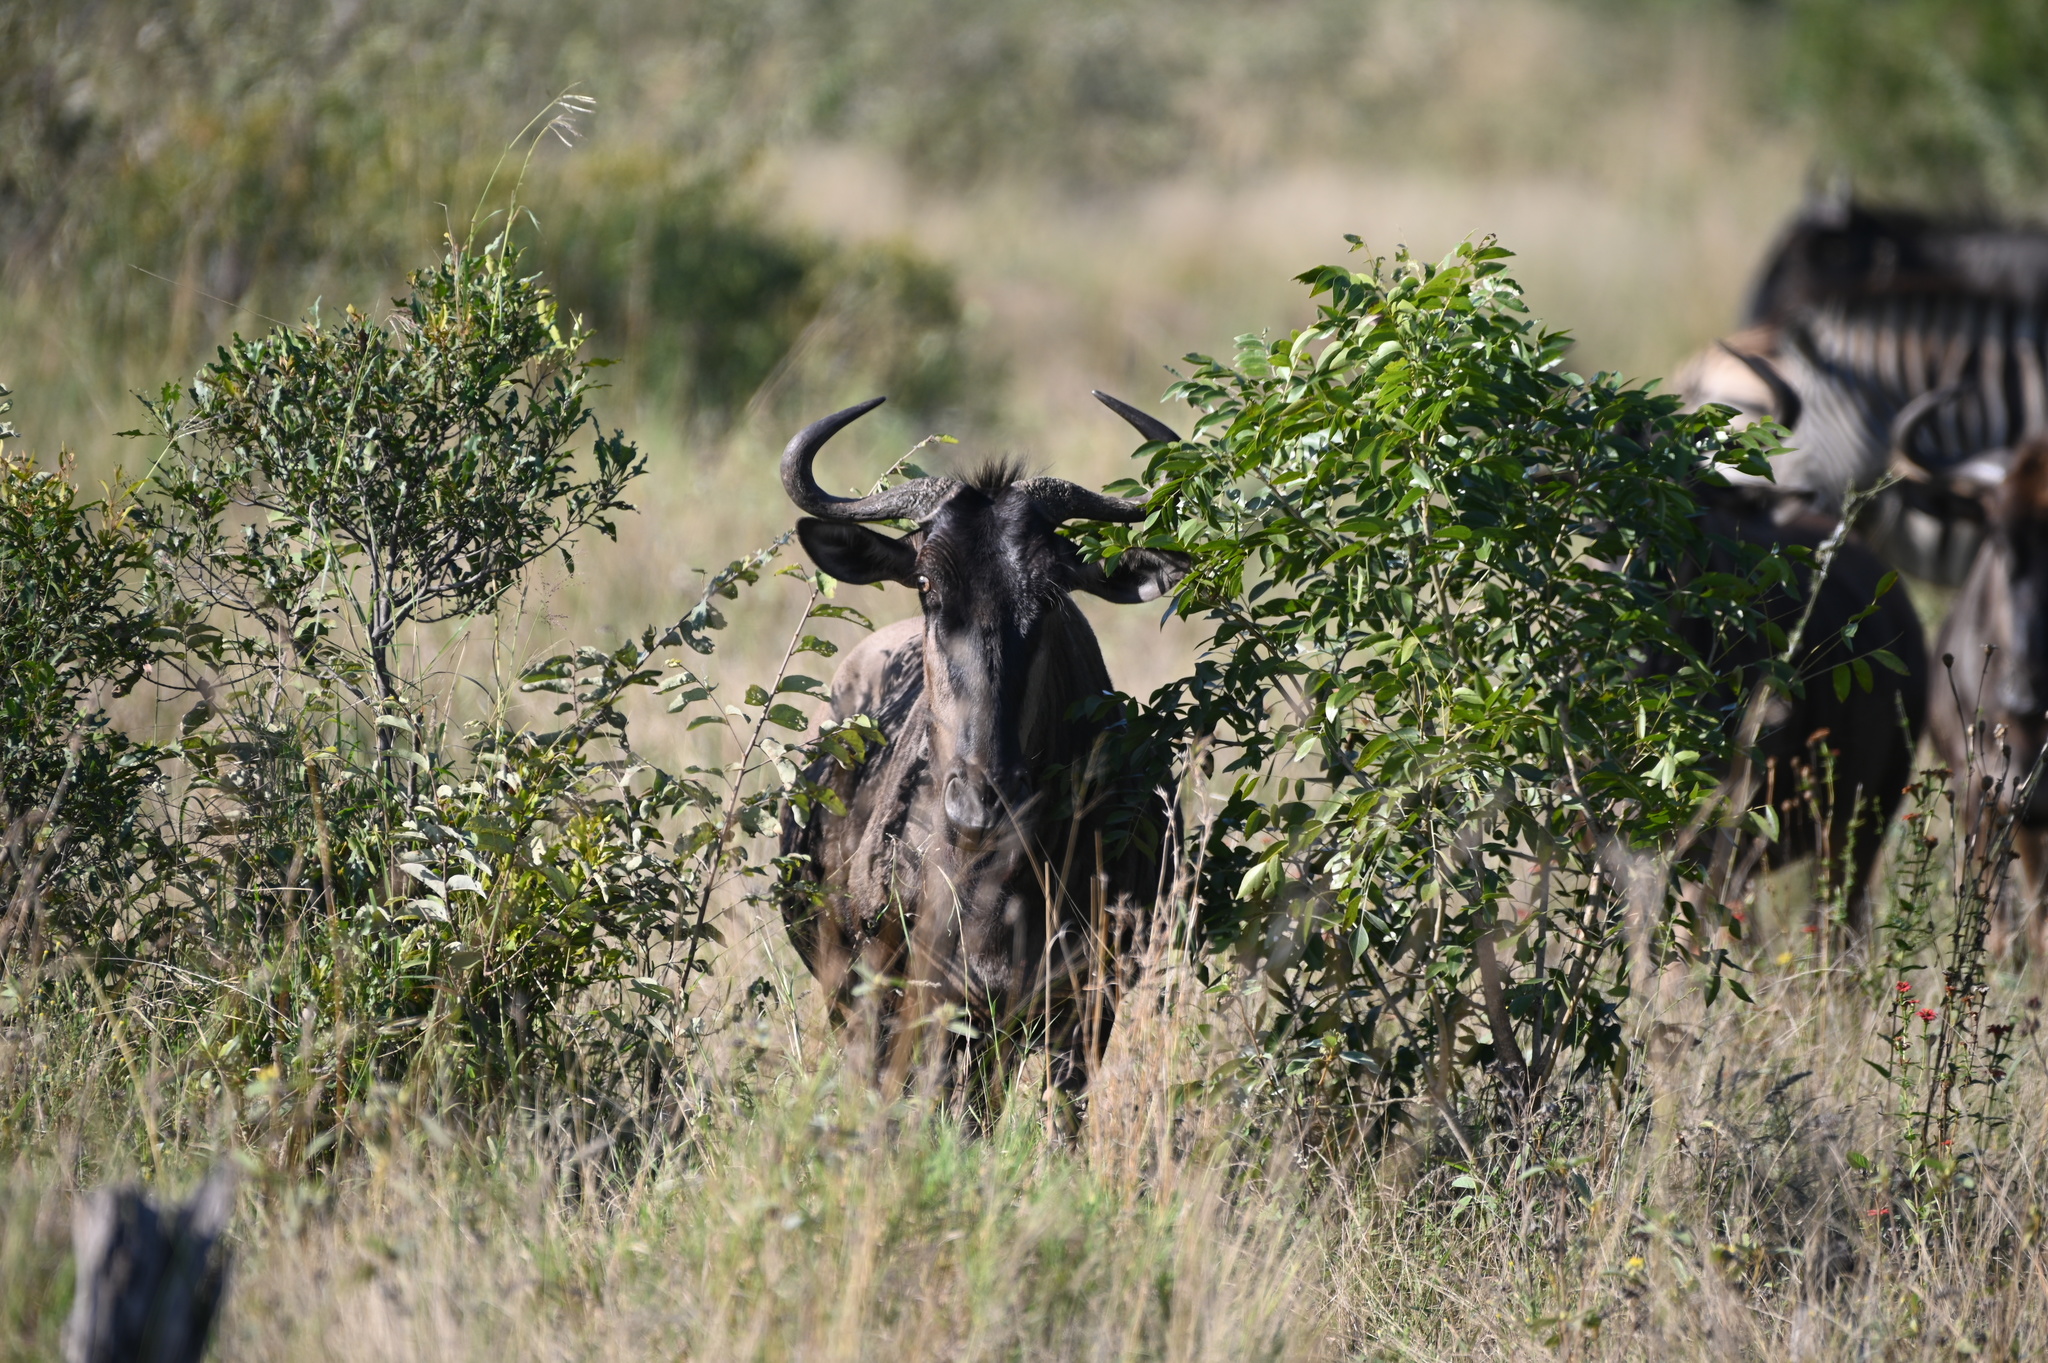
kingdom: Animalia
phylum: Chordata
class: Mammalia
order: Artiodactyla
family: Bovidae
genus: Connochaetes
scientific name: Connochaetes taurinus
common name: Blue wildebeest
